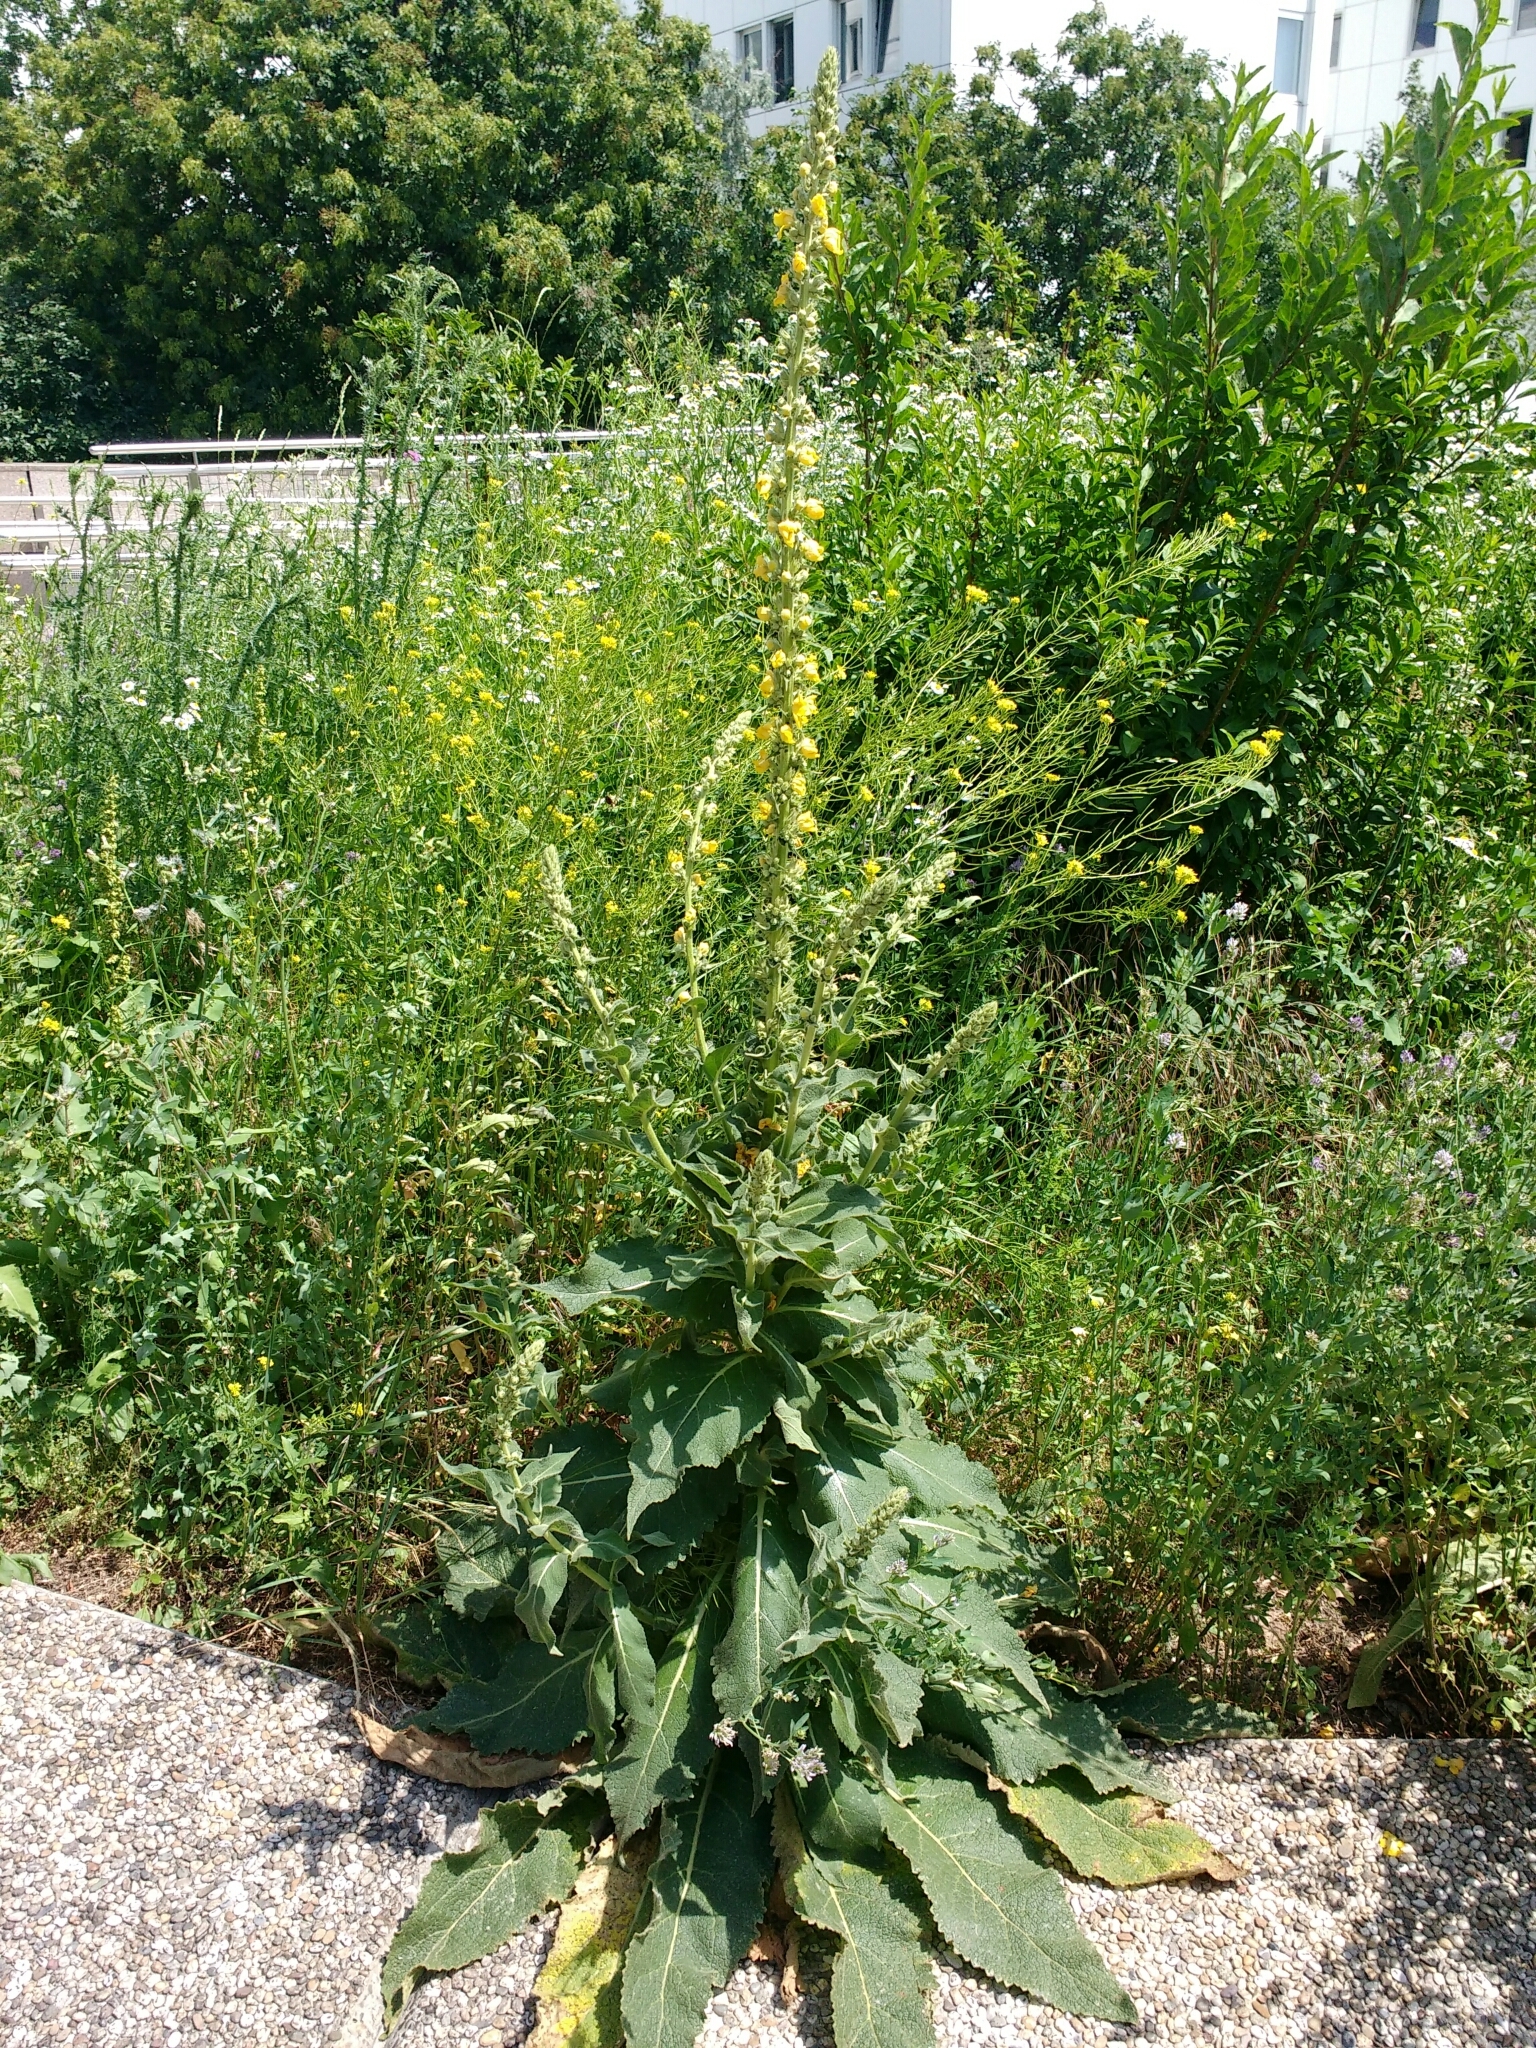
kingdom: Animalia
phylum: Arthropoda
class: Insecta
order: Hemiptera
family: Aphididae
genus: Aphis
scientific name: Aphis verbasci
